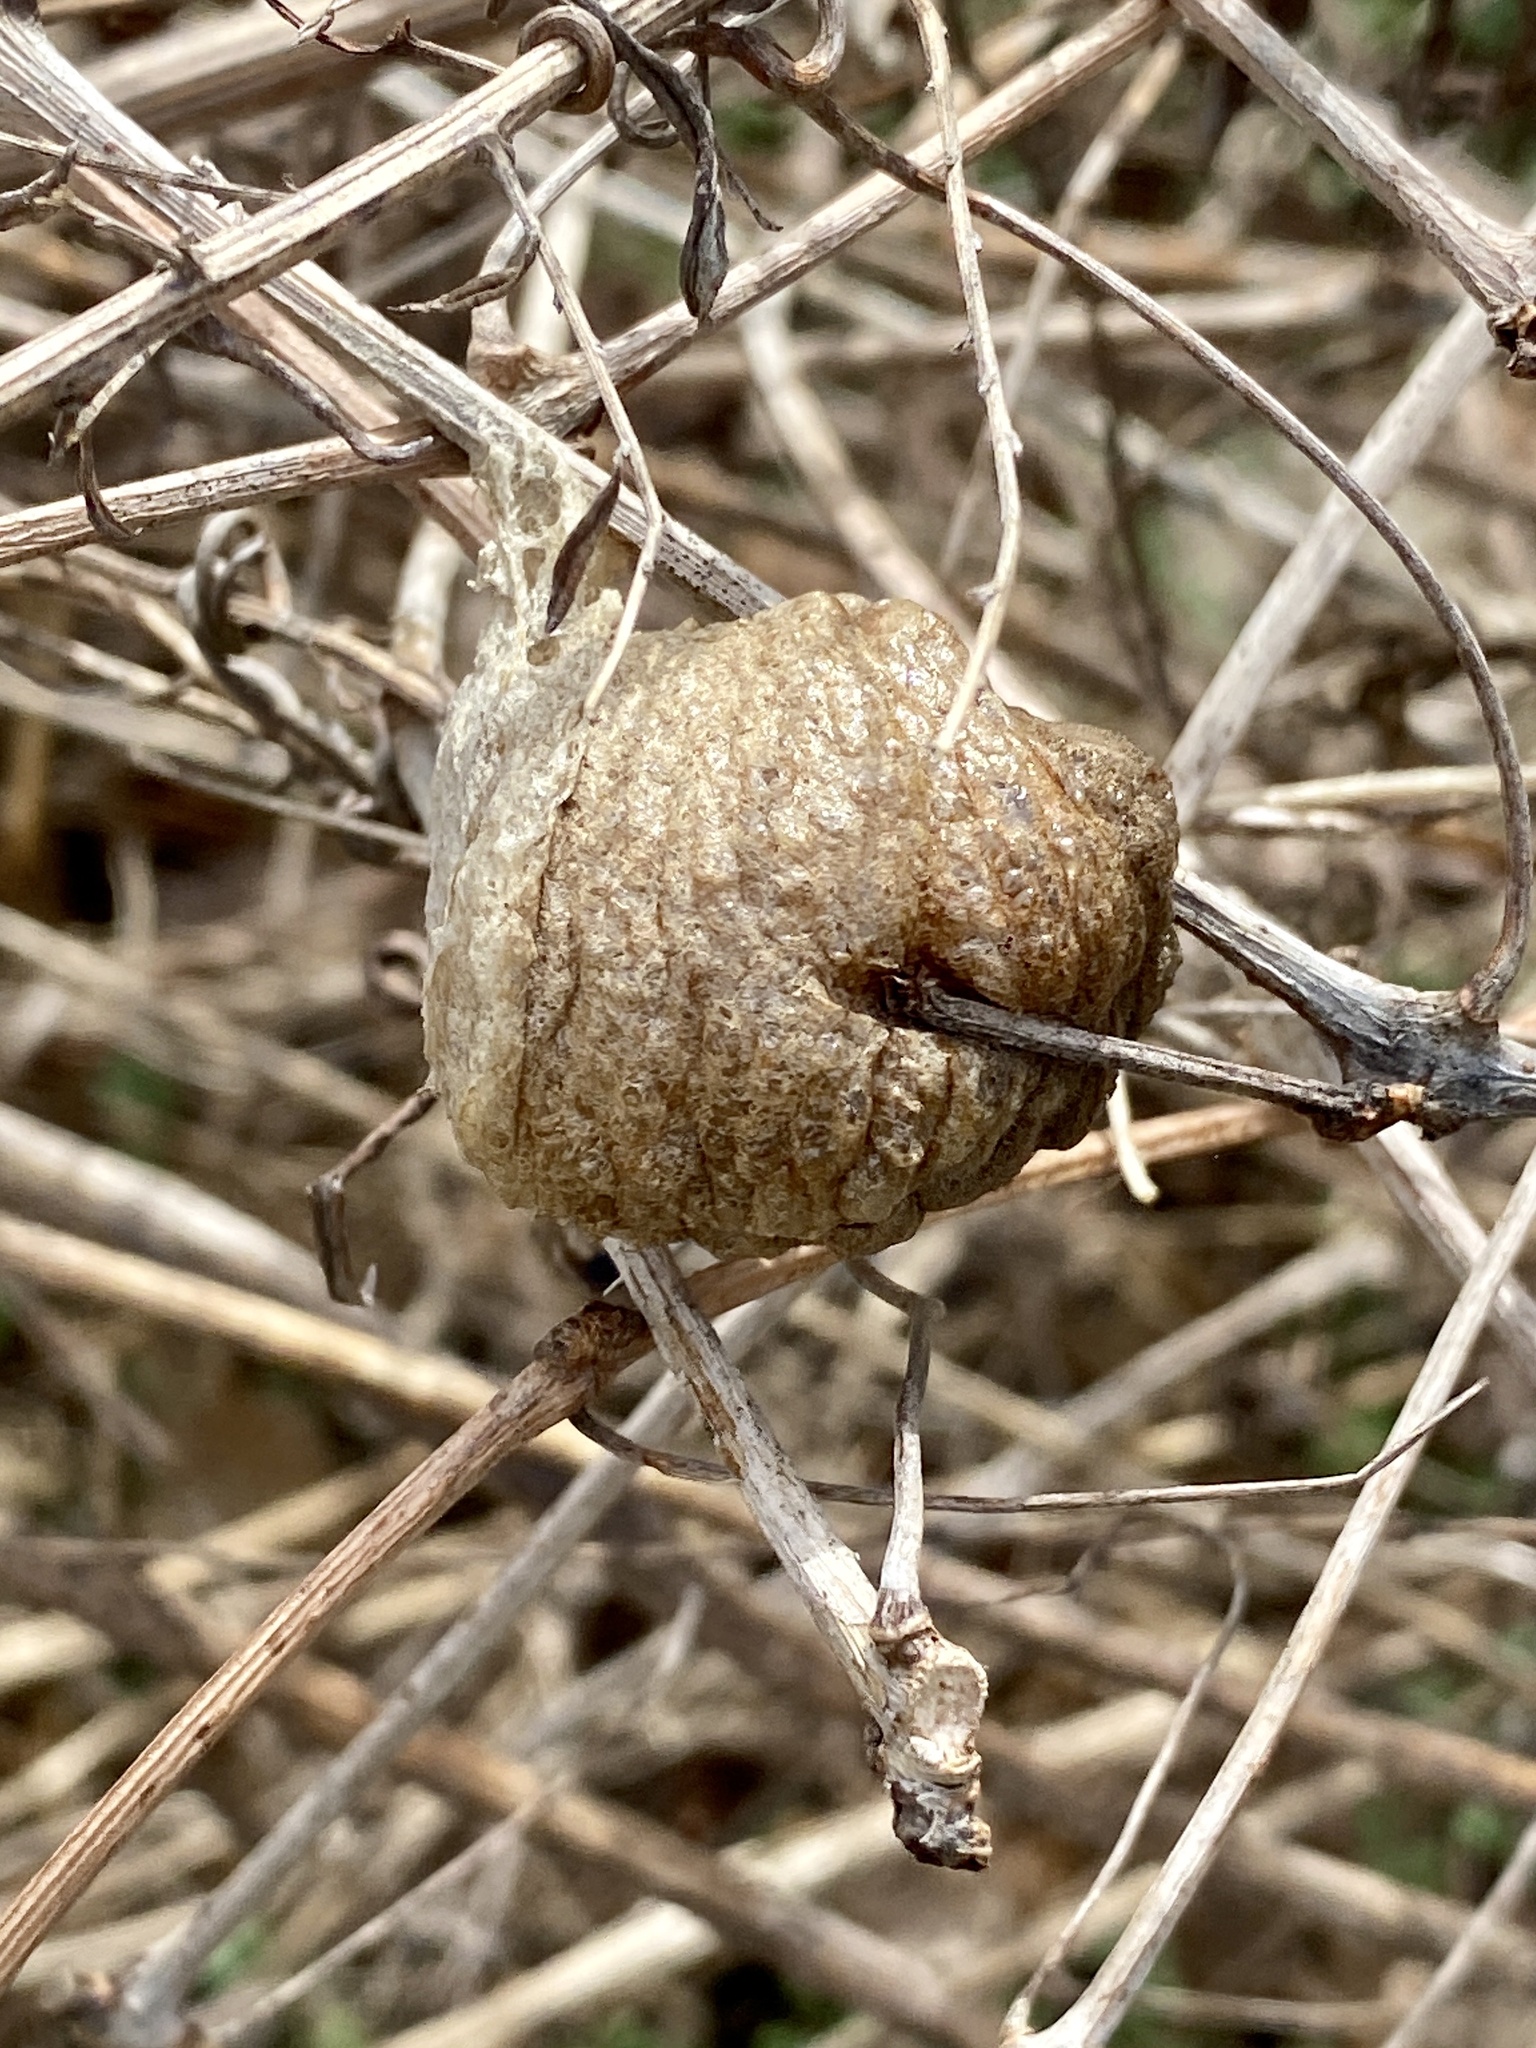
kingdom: Animalia
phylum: Arthropoda
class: Insecta
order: Mantodea
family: Mantidae
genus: Tenodera
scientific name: Tenodera sinensis
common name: Chinese mantis
